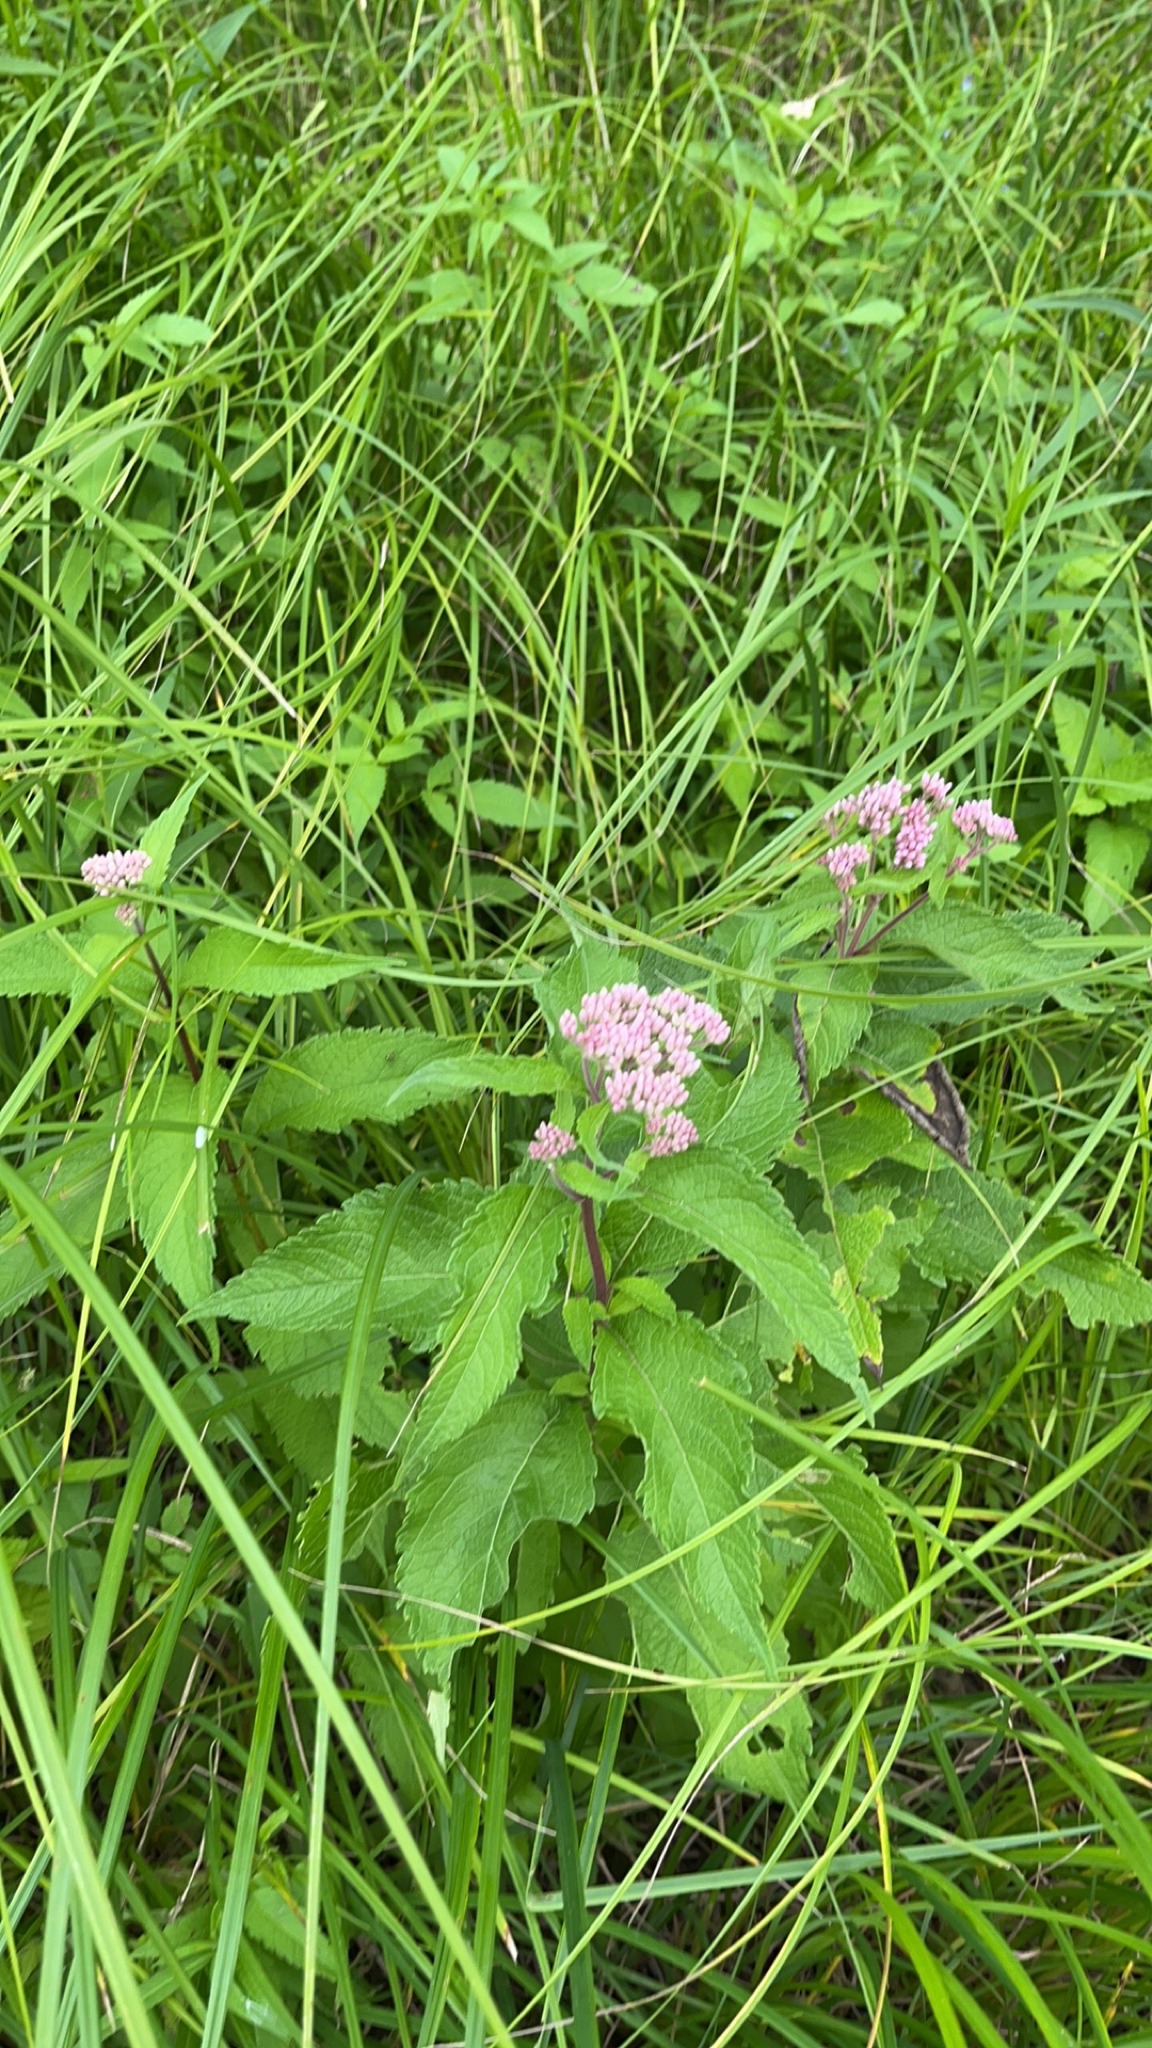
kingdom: Plantae
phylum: Tracheophyta
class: Magnoliopsida
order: Asterales
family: Asteraceae
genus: Eutrochium
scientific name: Eutrochium maculatum
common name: Spotted joe pye weed
